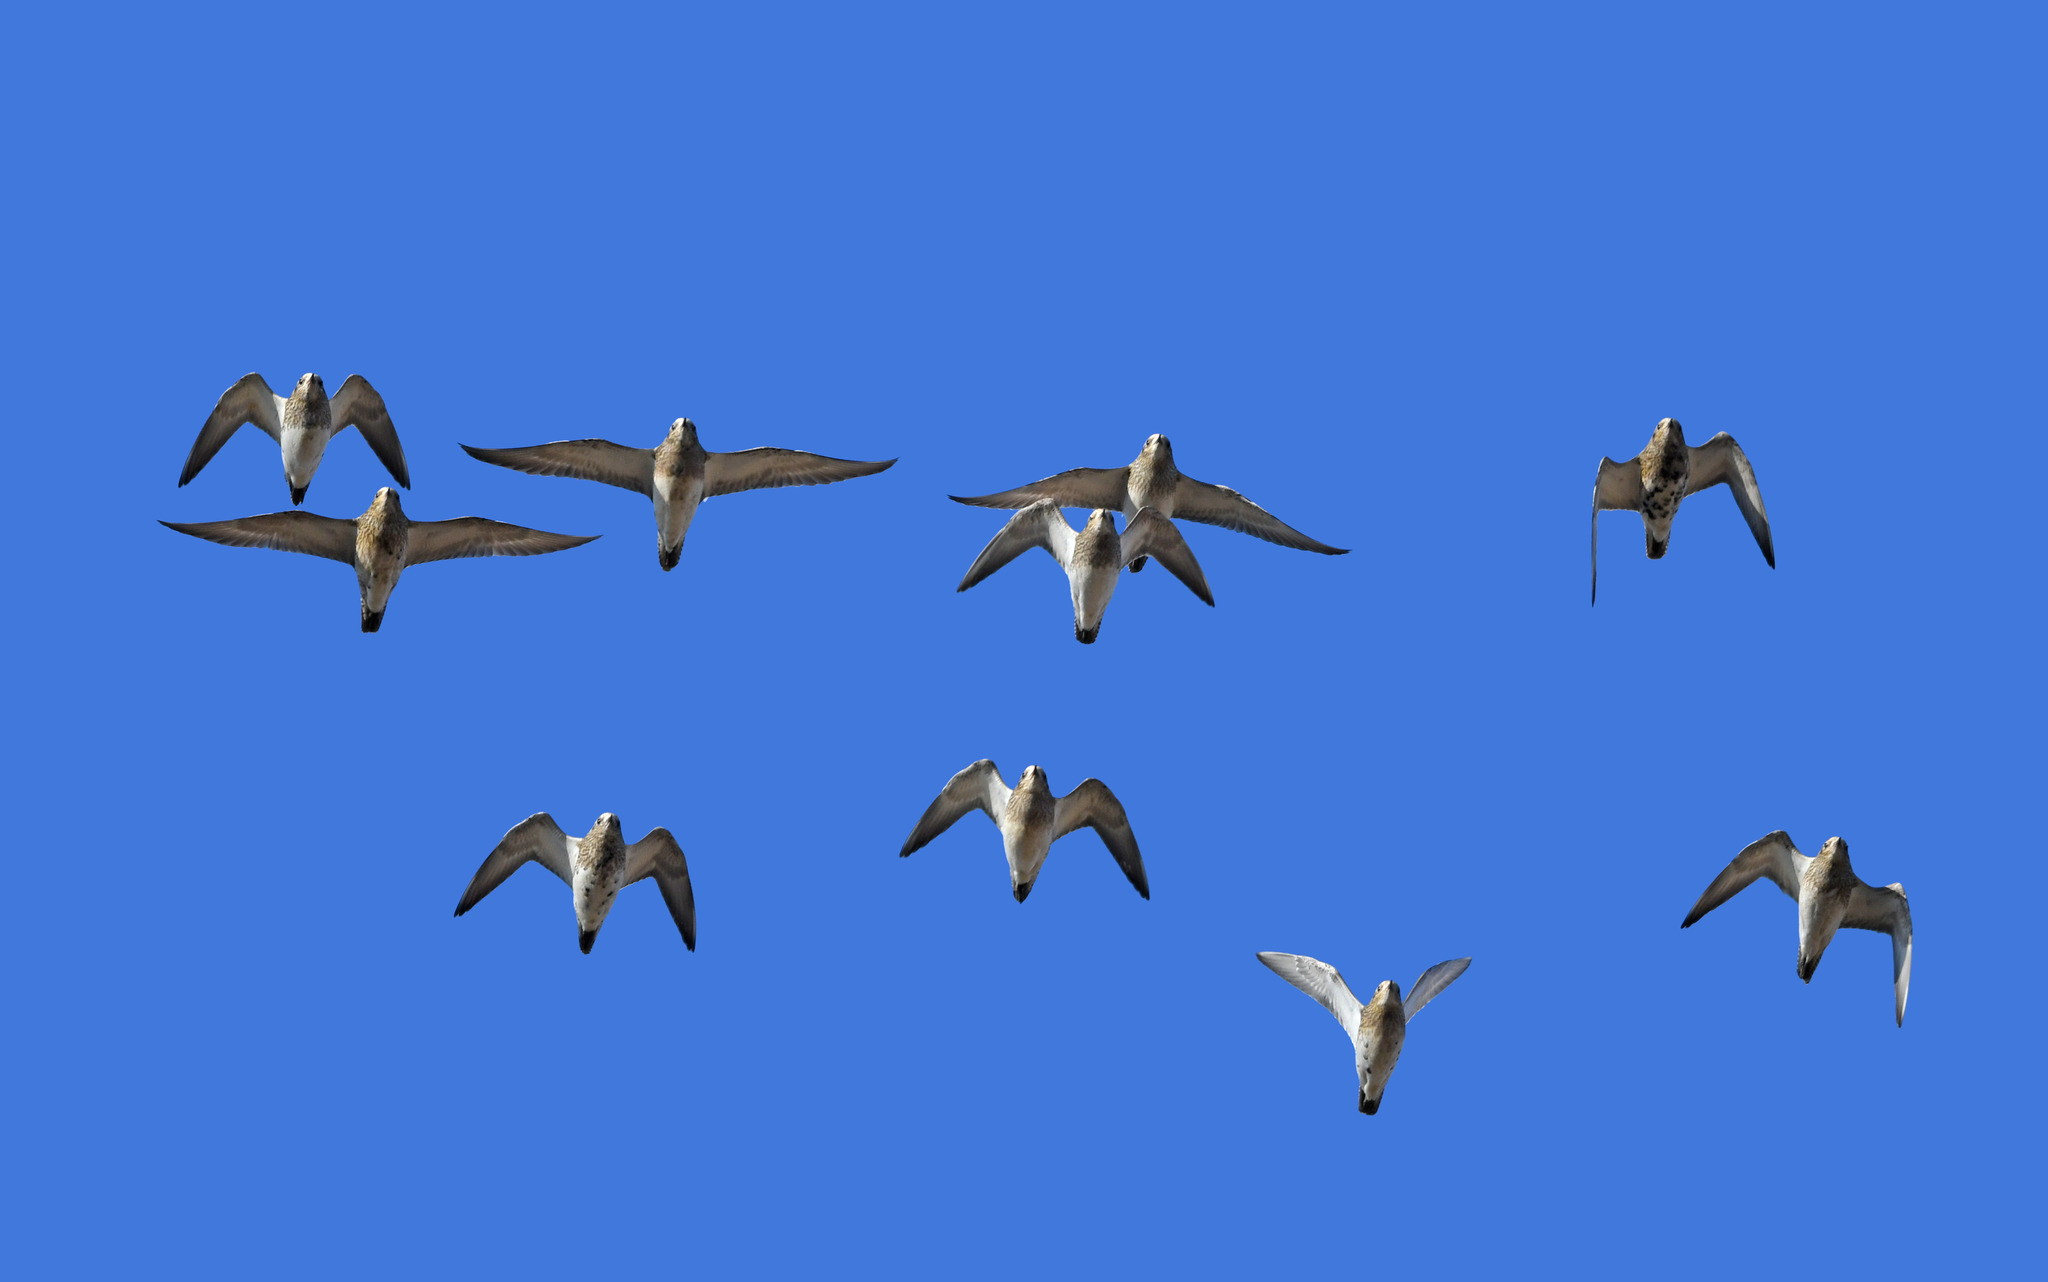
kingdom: Animalia
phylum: Chordata
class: Aves
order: Charadriiformes
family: Charadriidae
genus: Pluvialis
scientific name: Pluvialis apricaria
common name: European golden plover
